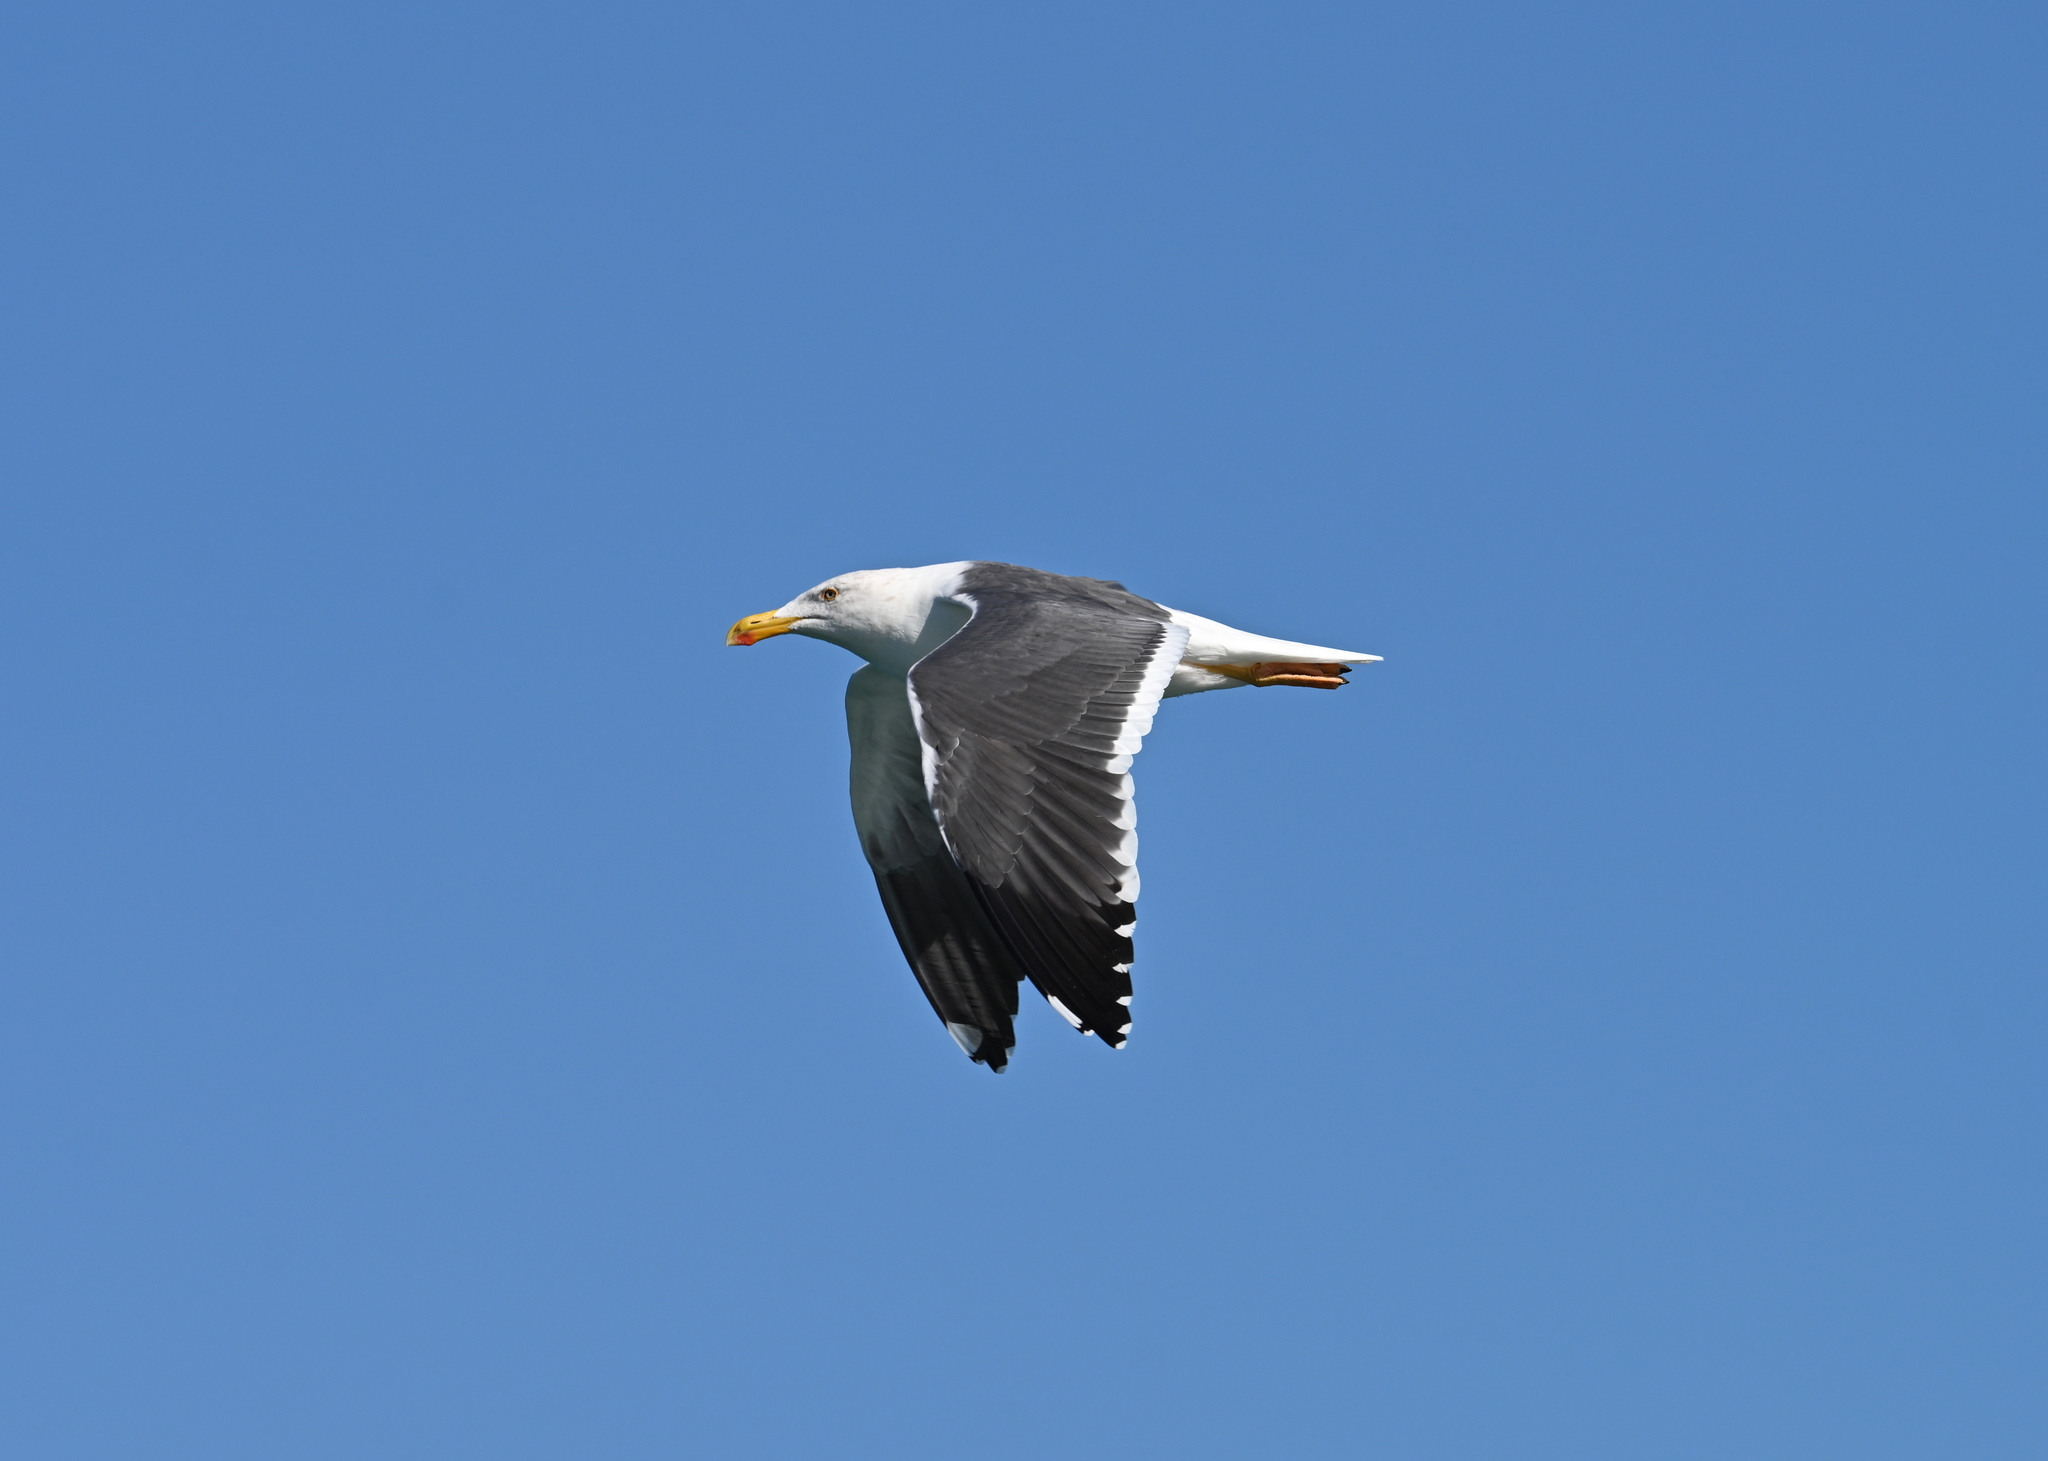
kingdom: Animalia
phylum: Chordata
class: Aves
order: Charadriiformes
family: Laridae
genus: Larus
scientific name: Larus livens
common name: Yellow-footed gull
